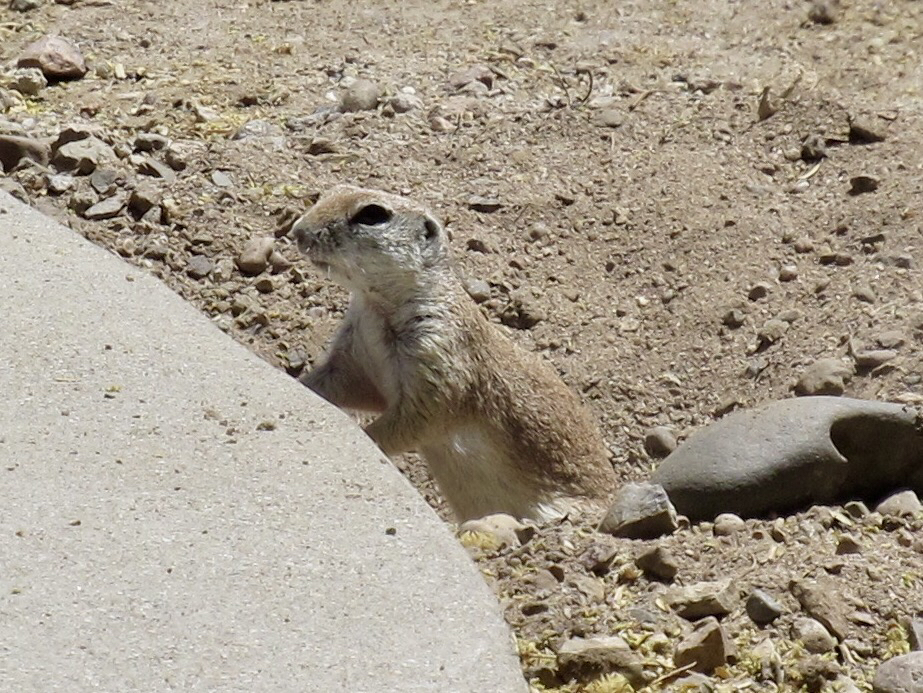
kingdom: Animalia
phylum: Chordata
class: Mammalia
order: Rodentia
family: Sciuridae
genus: Xerospermophilus
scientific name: Xerospermophilus tereticaudus
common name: Round-tailed ground squirrel
